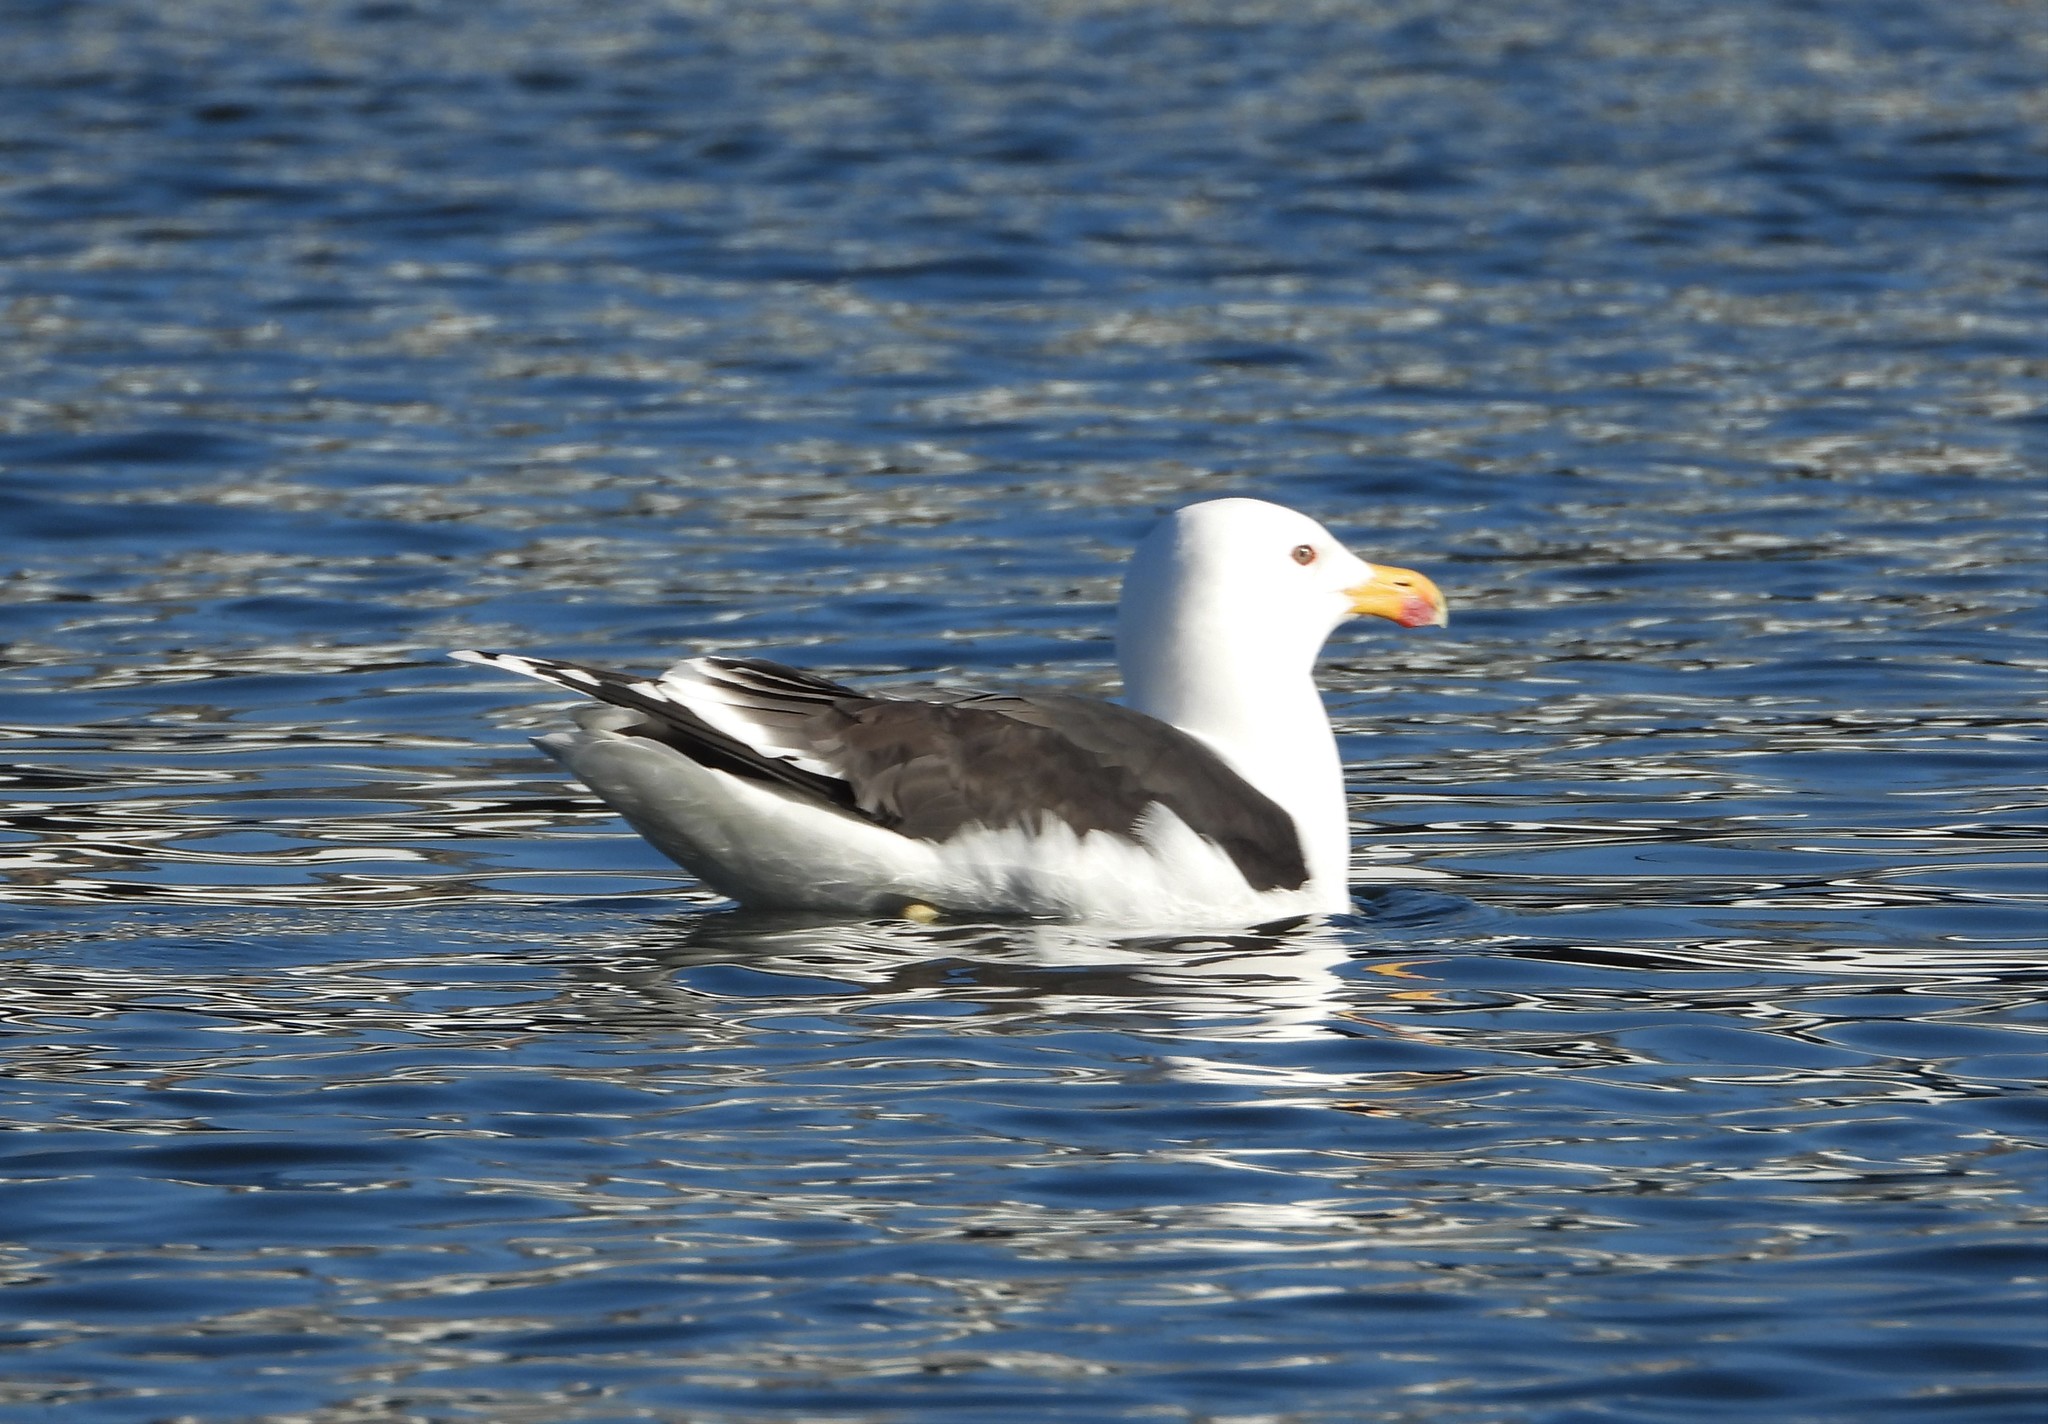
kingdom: Animalia
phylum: Chordata
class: Aves
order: Charadriiformes
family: Laridae
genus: Larus
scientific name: Larus marinus
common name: Great black-backed gull
